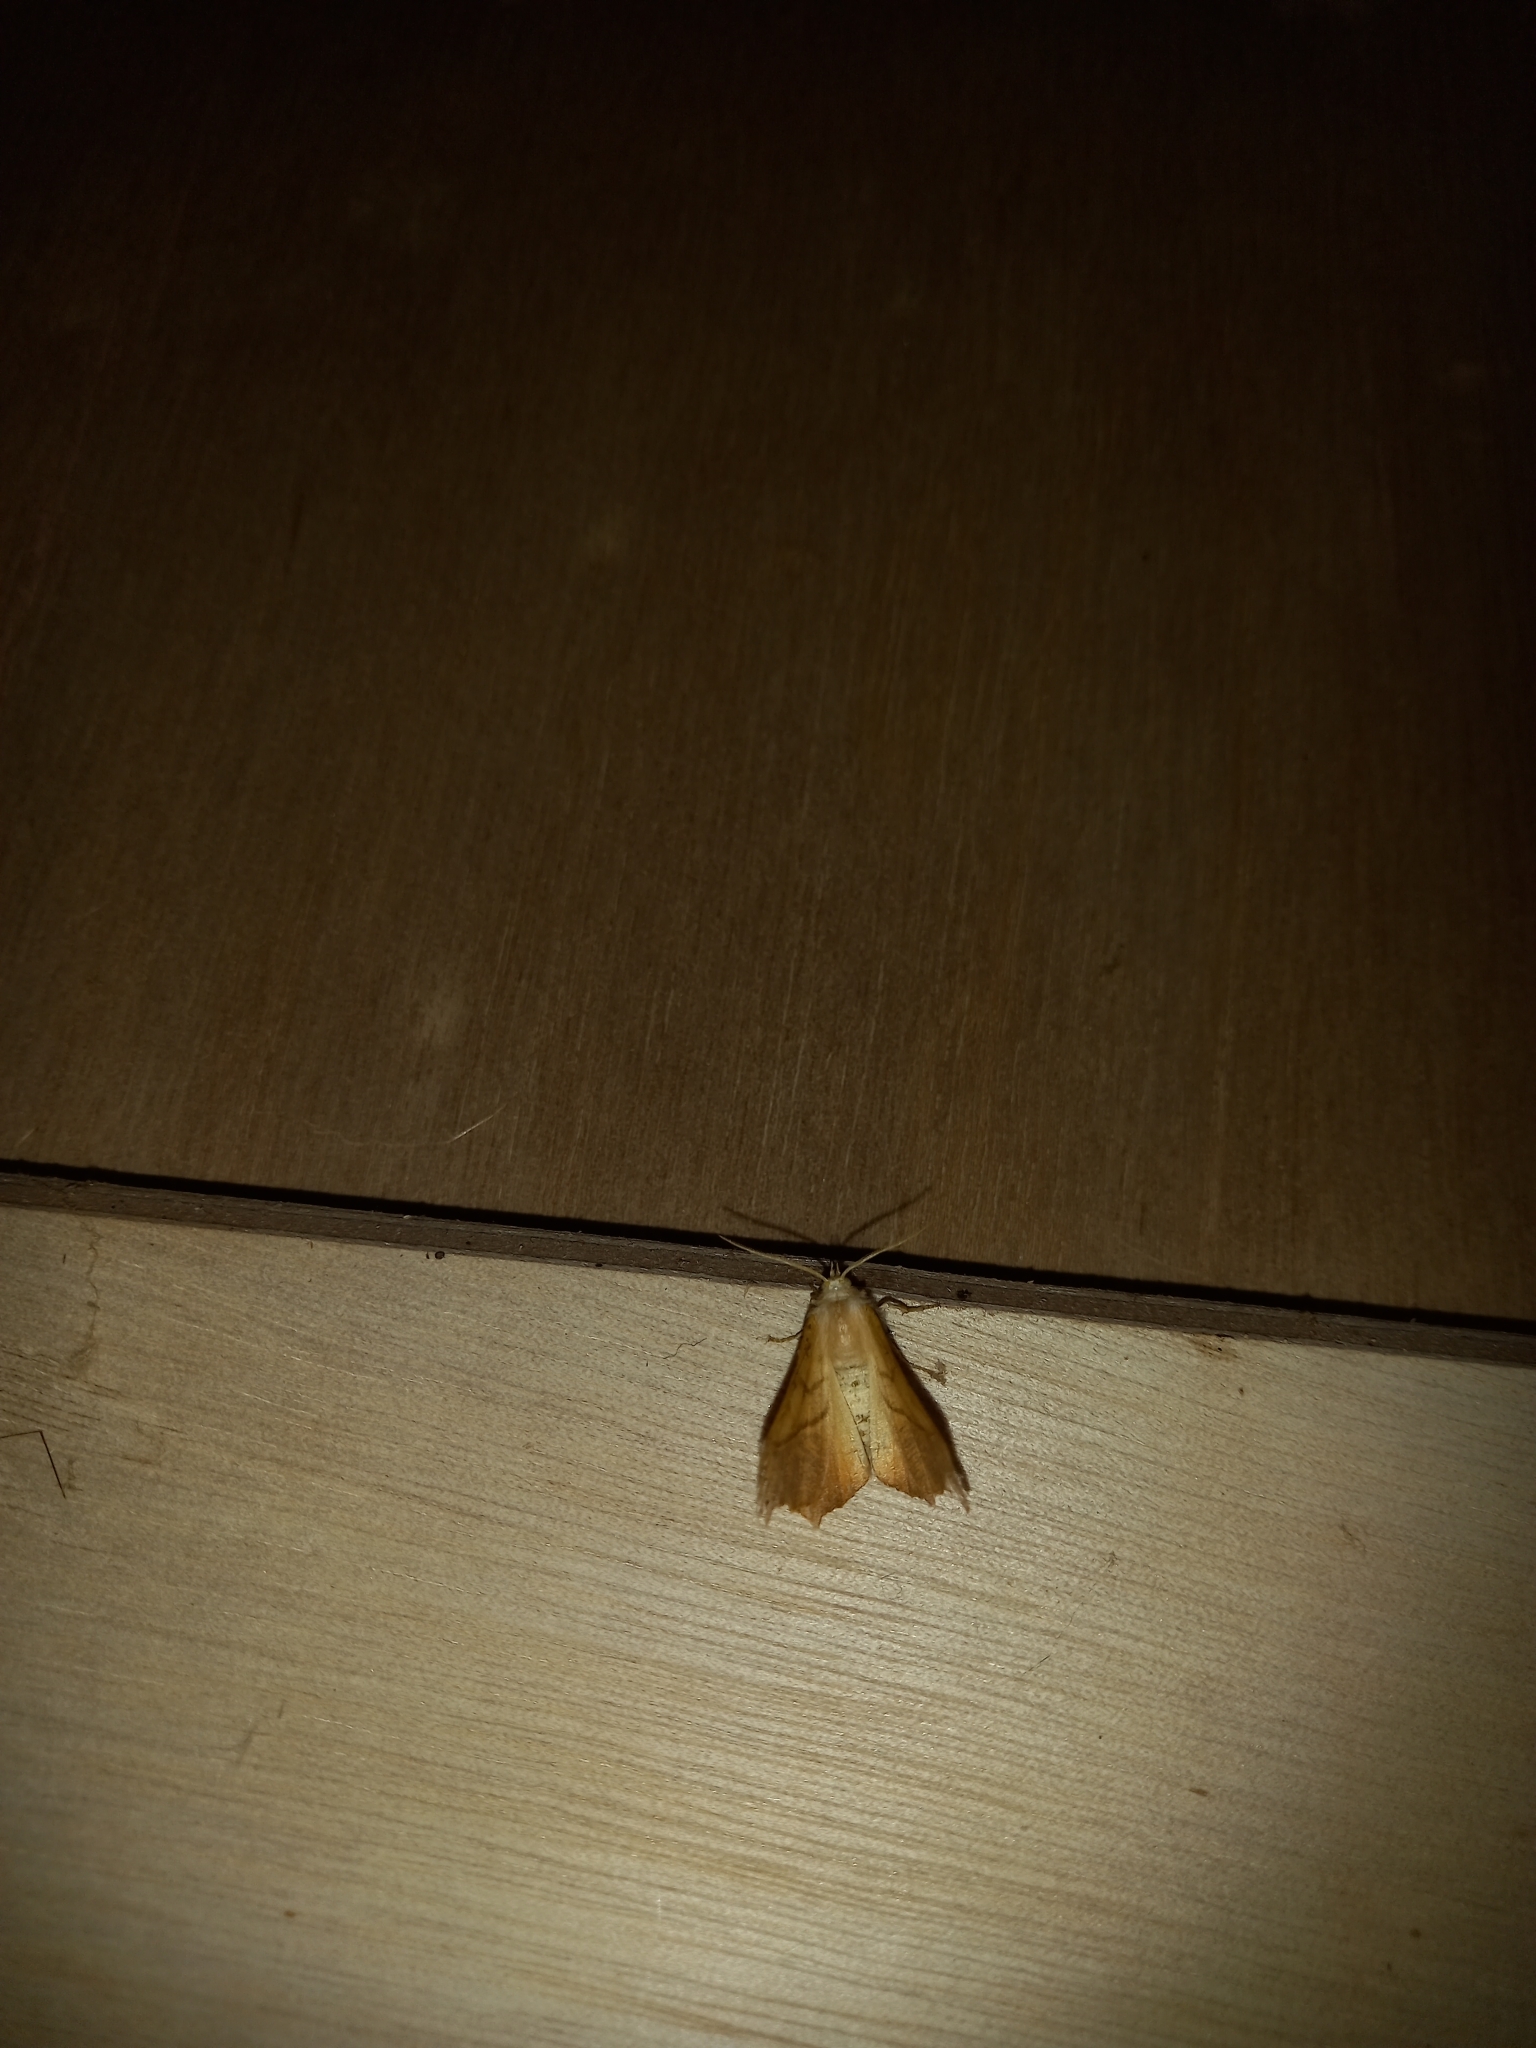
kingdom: Animalia
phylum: Arthropoda
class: Insecta
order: Lepidoptera
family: Geometridae
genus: Ennomos
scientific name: Ennomos erosaria
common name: September thorn
